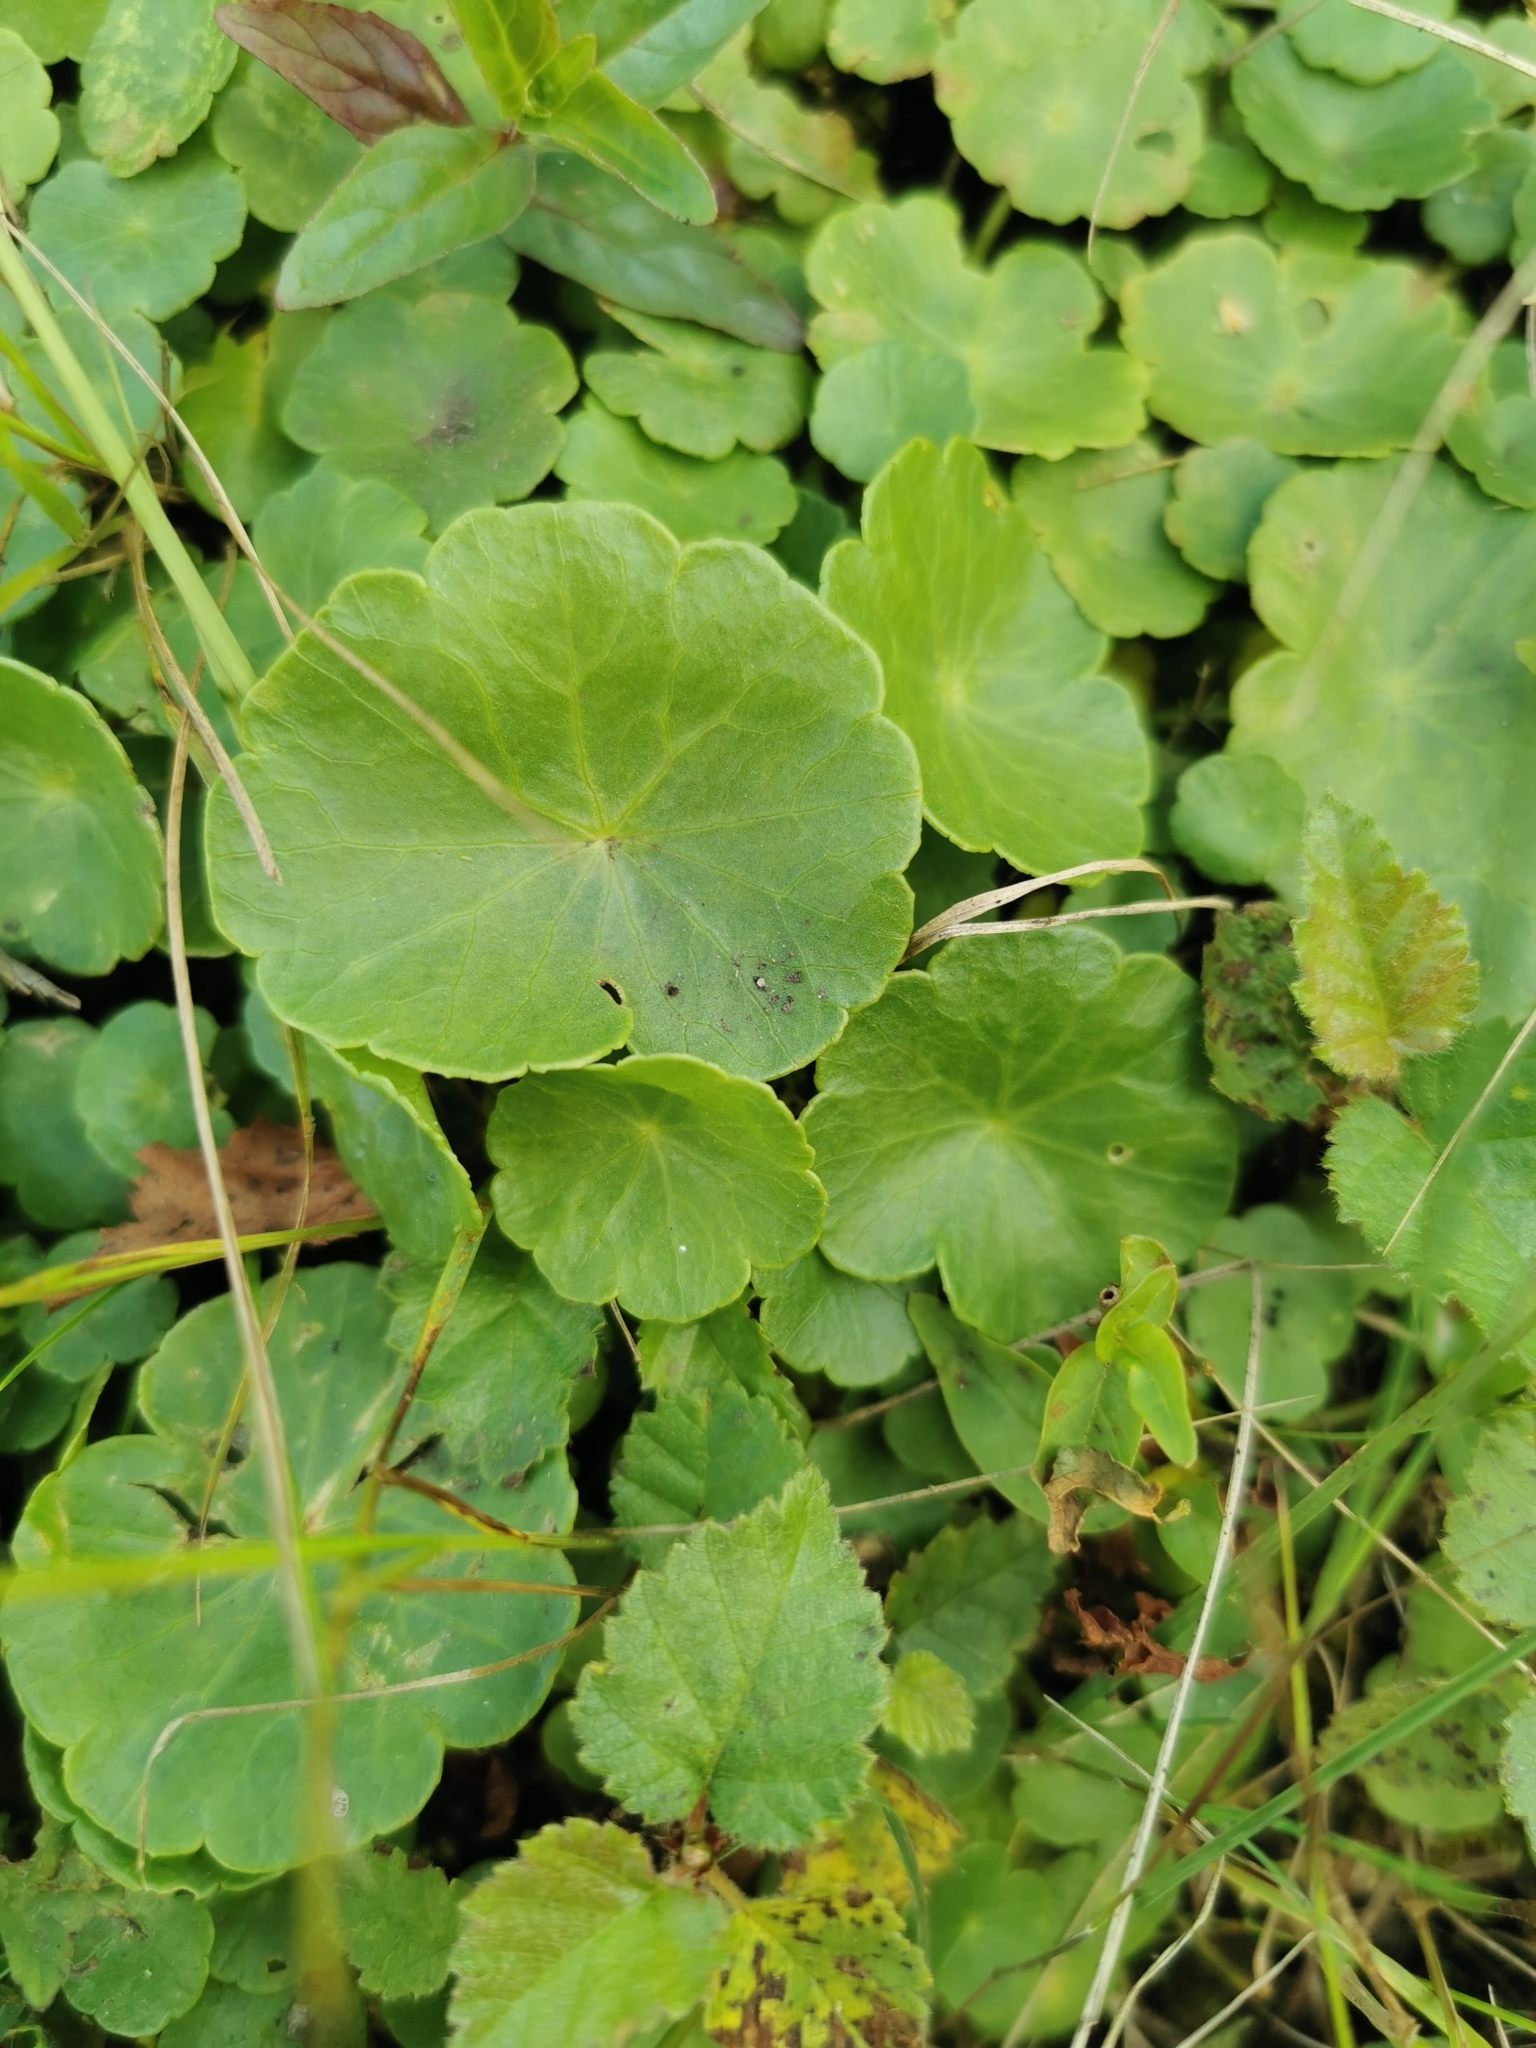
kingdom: Plantae
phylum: Tracheophyta
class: Magnoliopsida
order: Apiales
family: Araliaceae
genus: Hydrocotyle
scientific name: Hydrocotyle vulgaris
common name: Marsh pennywort
